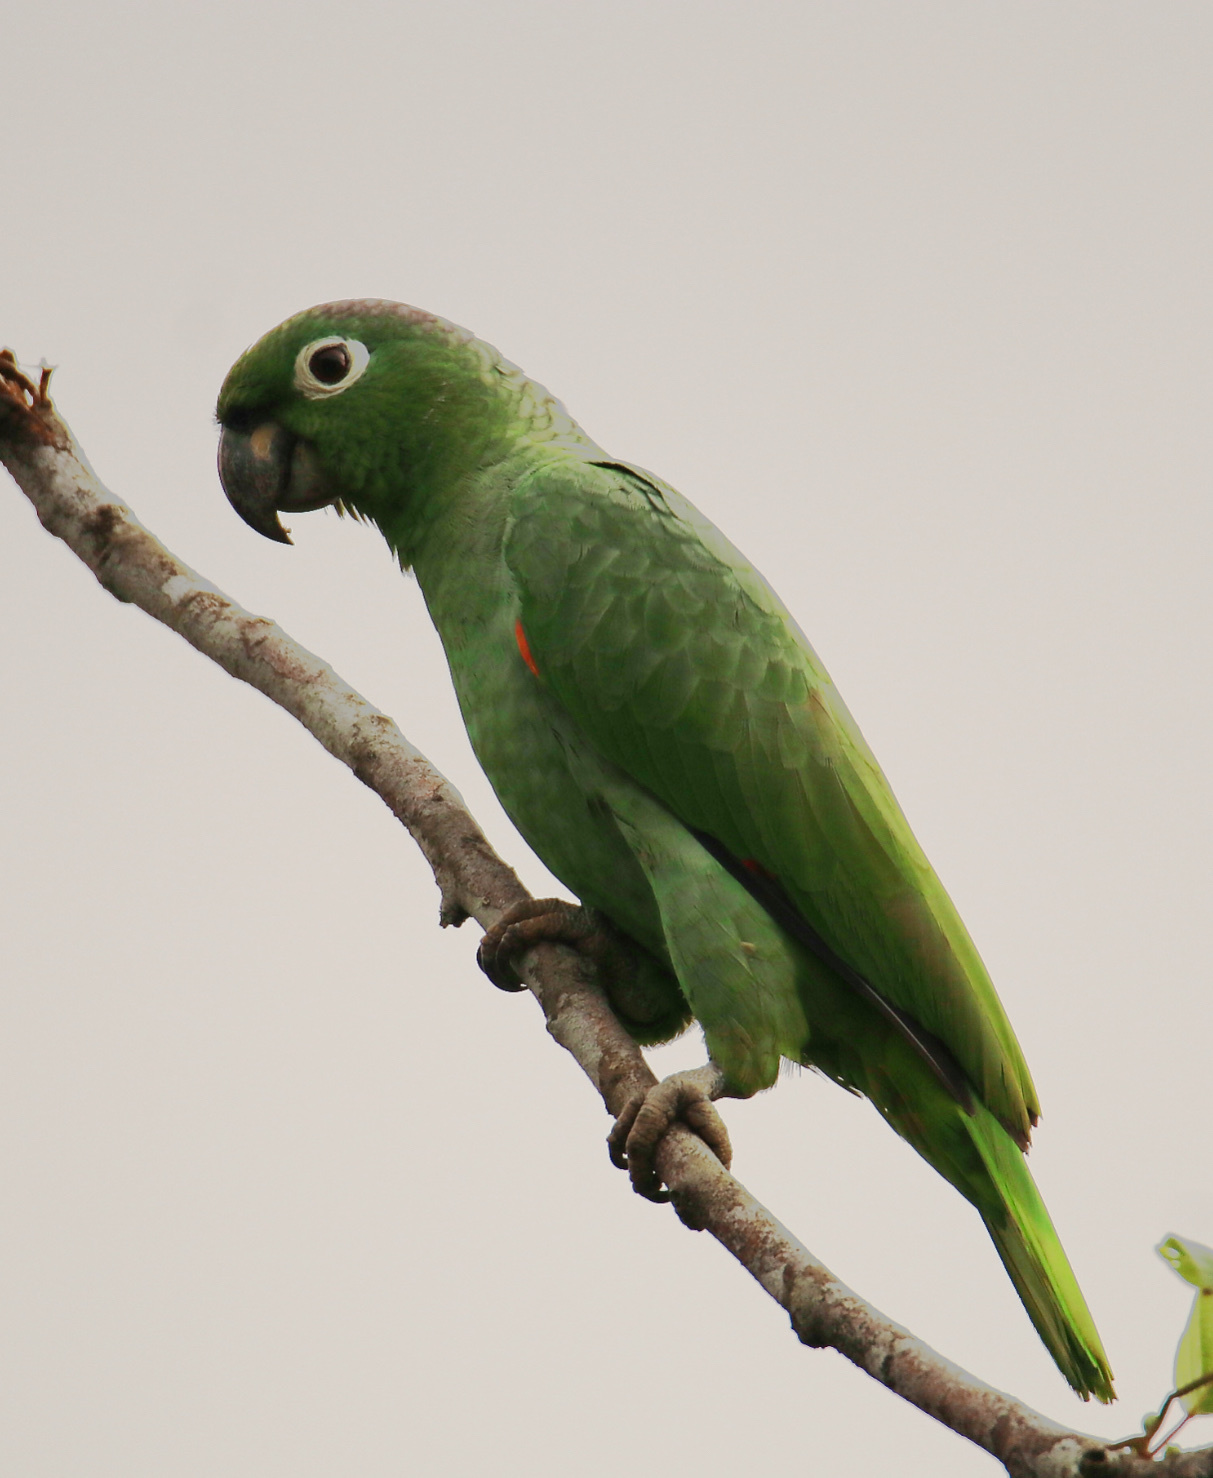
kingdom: Animalia
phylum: Chordata
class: Aves
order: Psittaciformes
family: Psittacidae
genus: Amazona
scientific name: Amazona farinosa
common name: Mealy parrot
